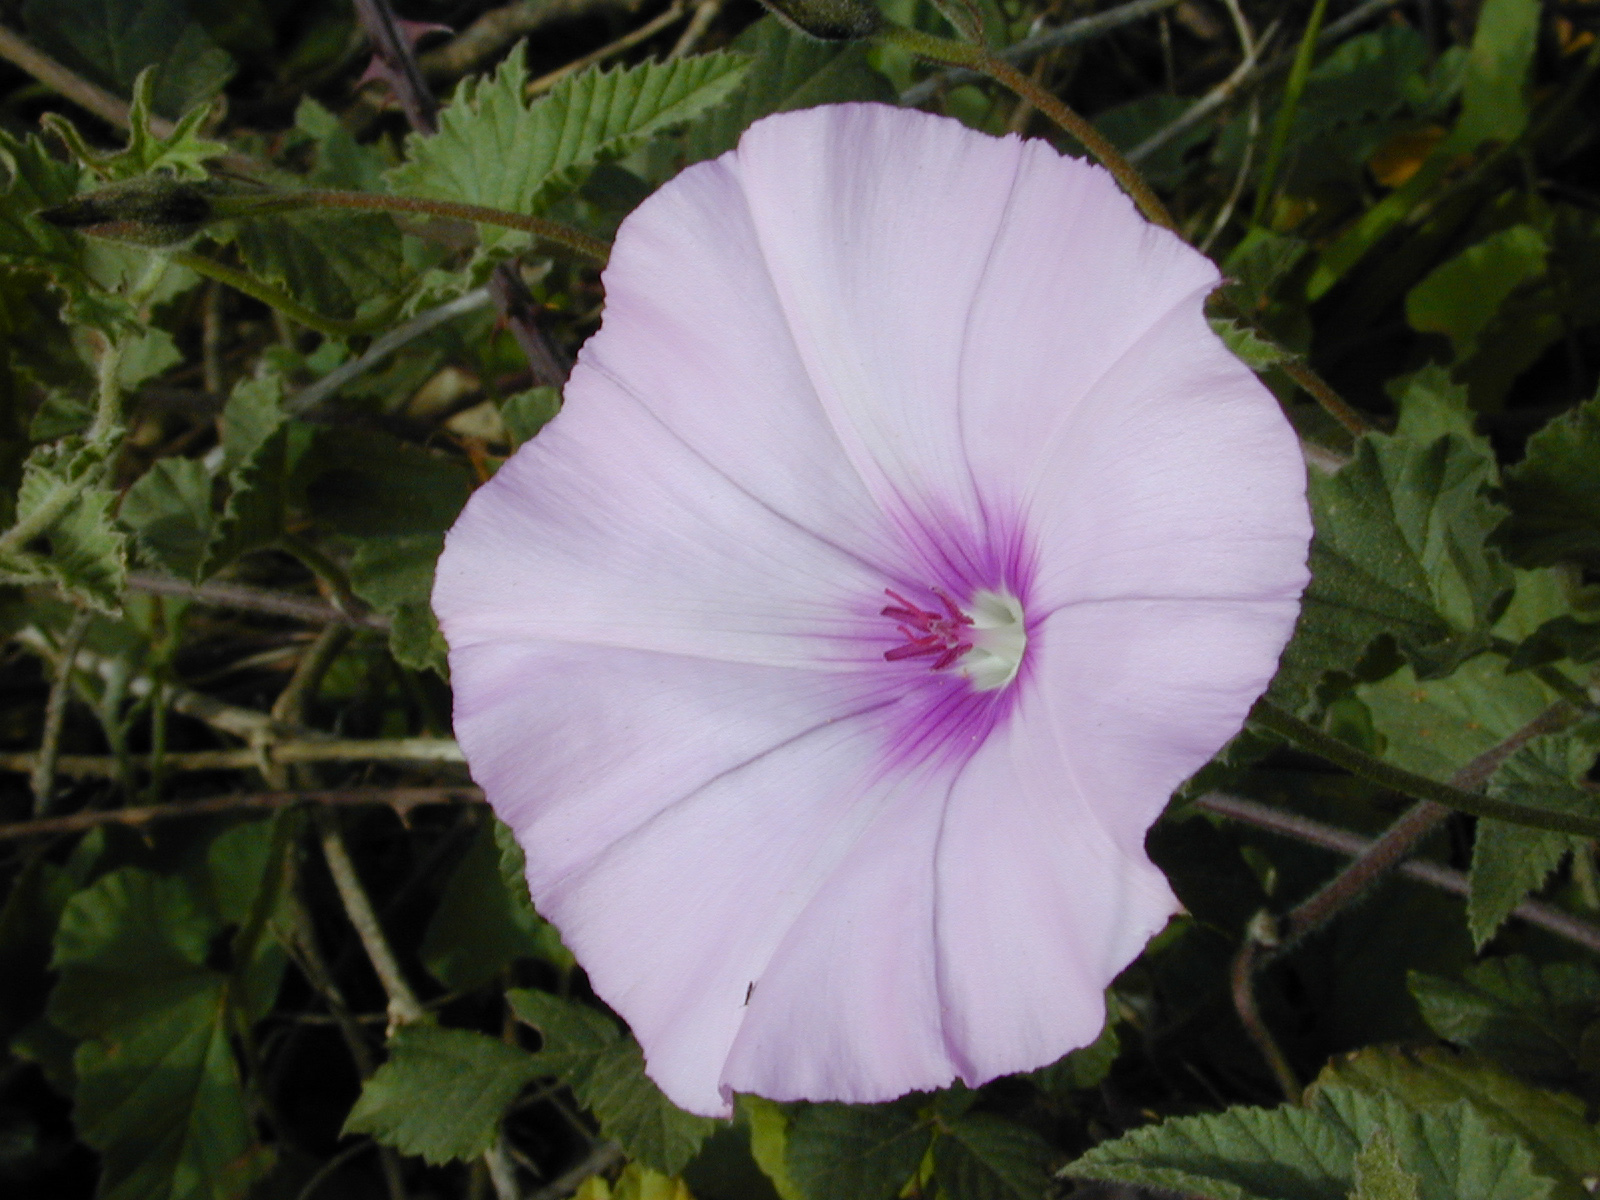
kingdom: Plantae
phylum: Tracheophyta
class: Magnoliopsida
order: Solanales
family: Convolvulaceae
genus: Convolvulus
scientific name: Convolvulus althaeoides
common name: Mallow bindweed
